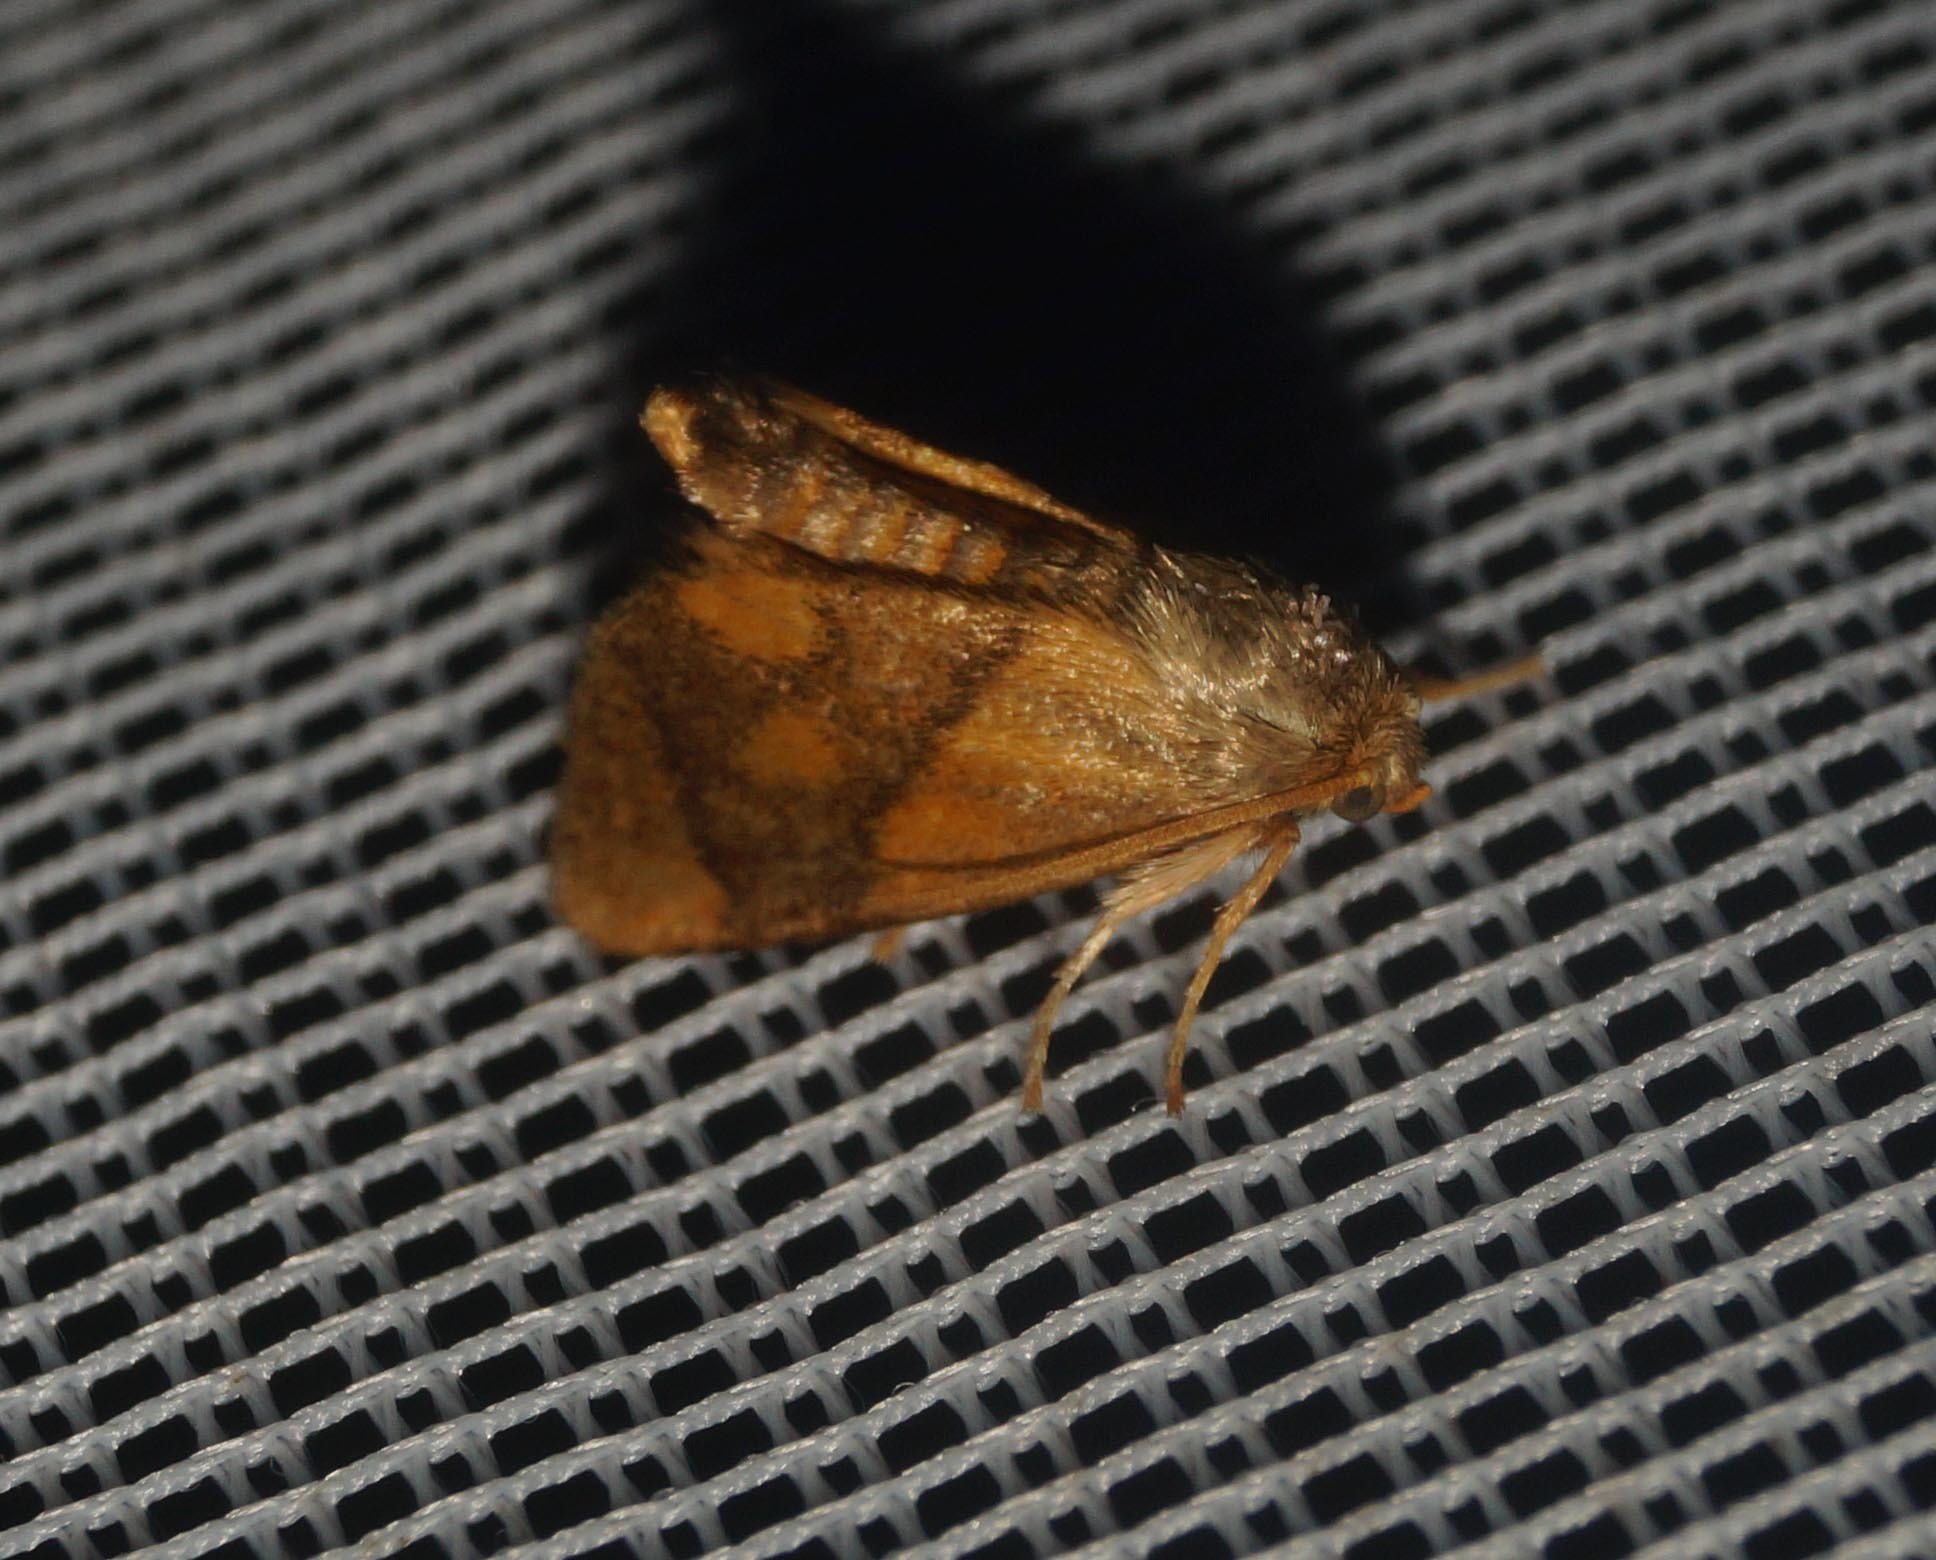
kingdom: Animalia
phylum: Arthropoda
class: Insecta
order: Lepidoptera
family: Limacodidae
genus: Apoda
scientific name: Apoda limacodes
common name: Festoon
